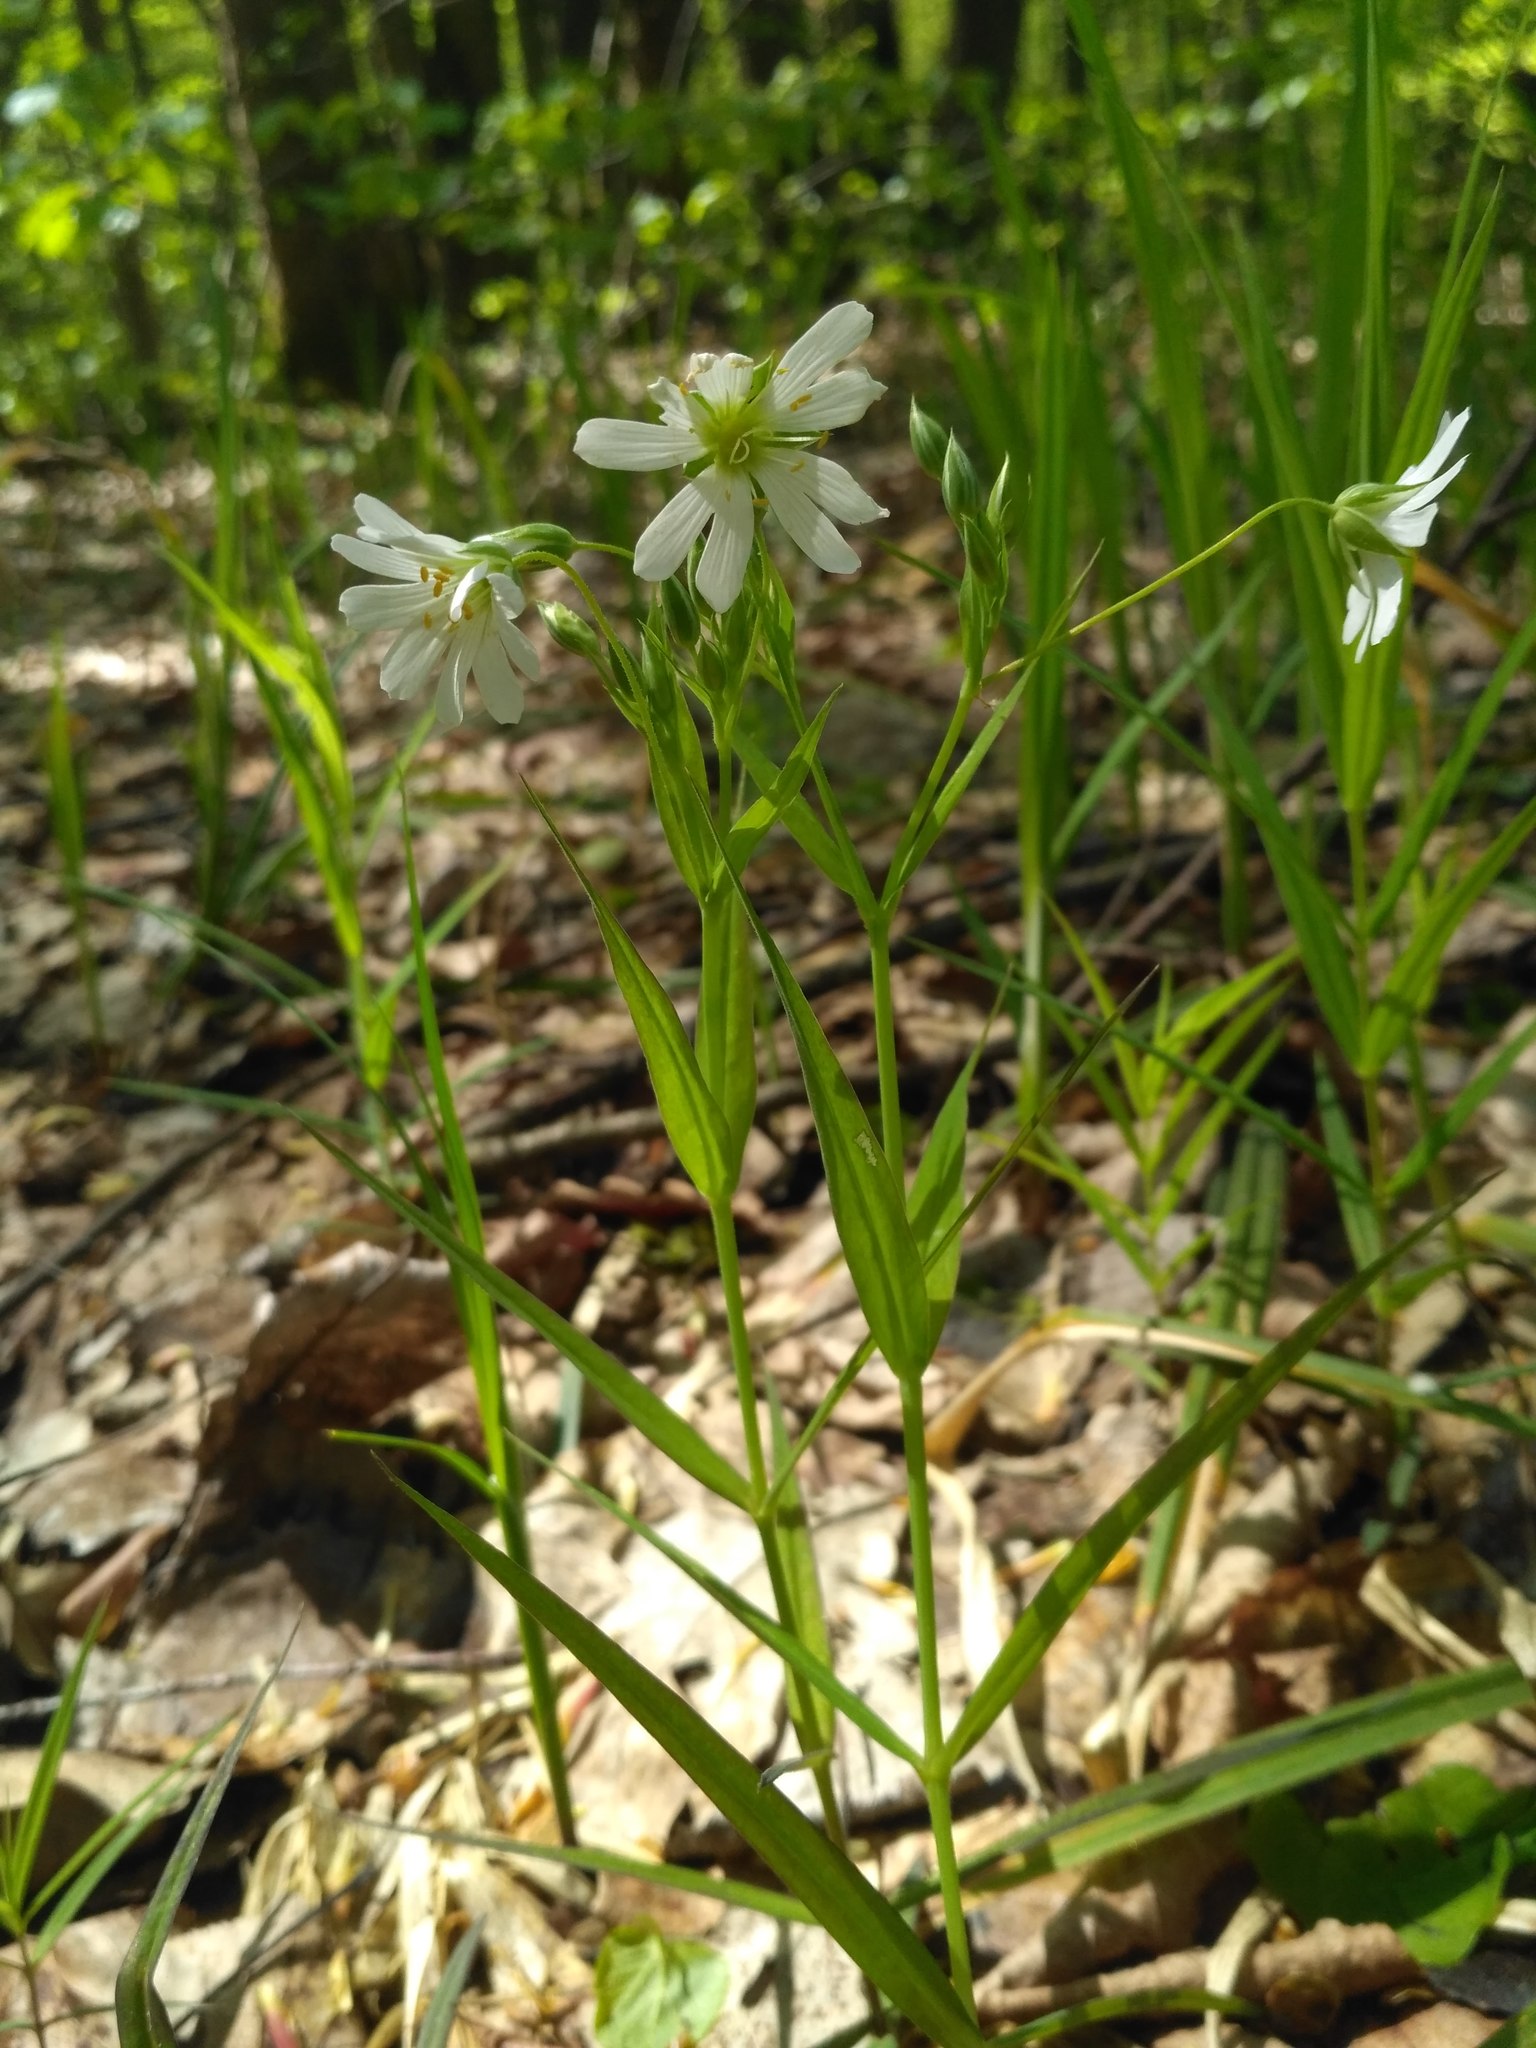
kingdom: Plantae
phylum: Tracheophyta
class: Magnoliopsida
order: Caryophyllales
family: Caryophyllaceae
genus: Rabelera
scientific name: Rabelera holostea
